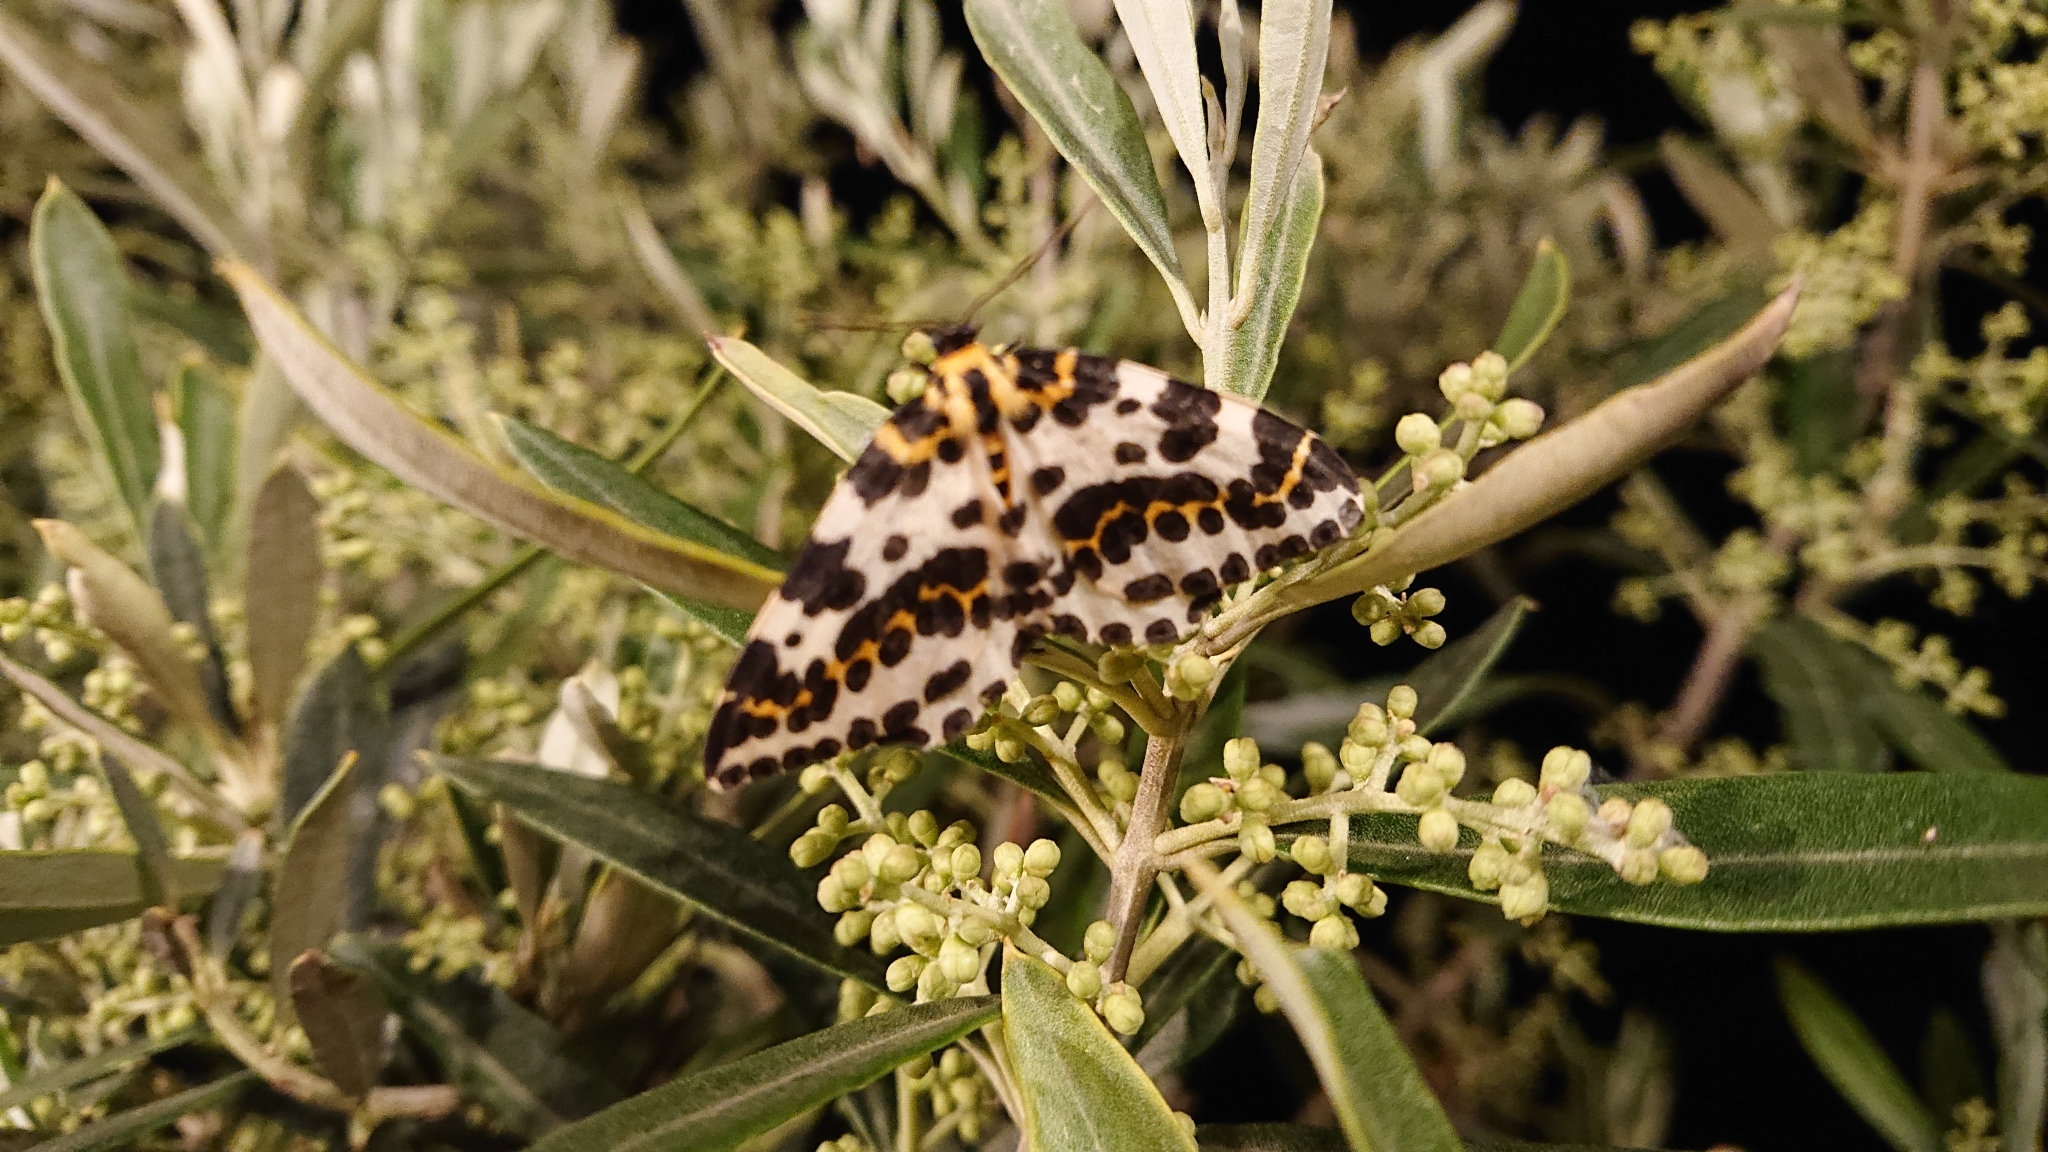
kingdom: Animalia
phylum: Arthropoda
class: Insecta
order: Lepidoptera
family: Geometridae
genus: Abraxas
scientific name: Abraxas grossulariata
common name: Magpie
